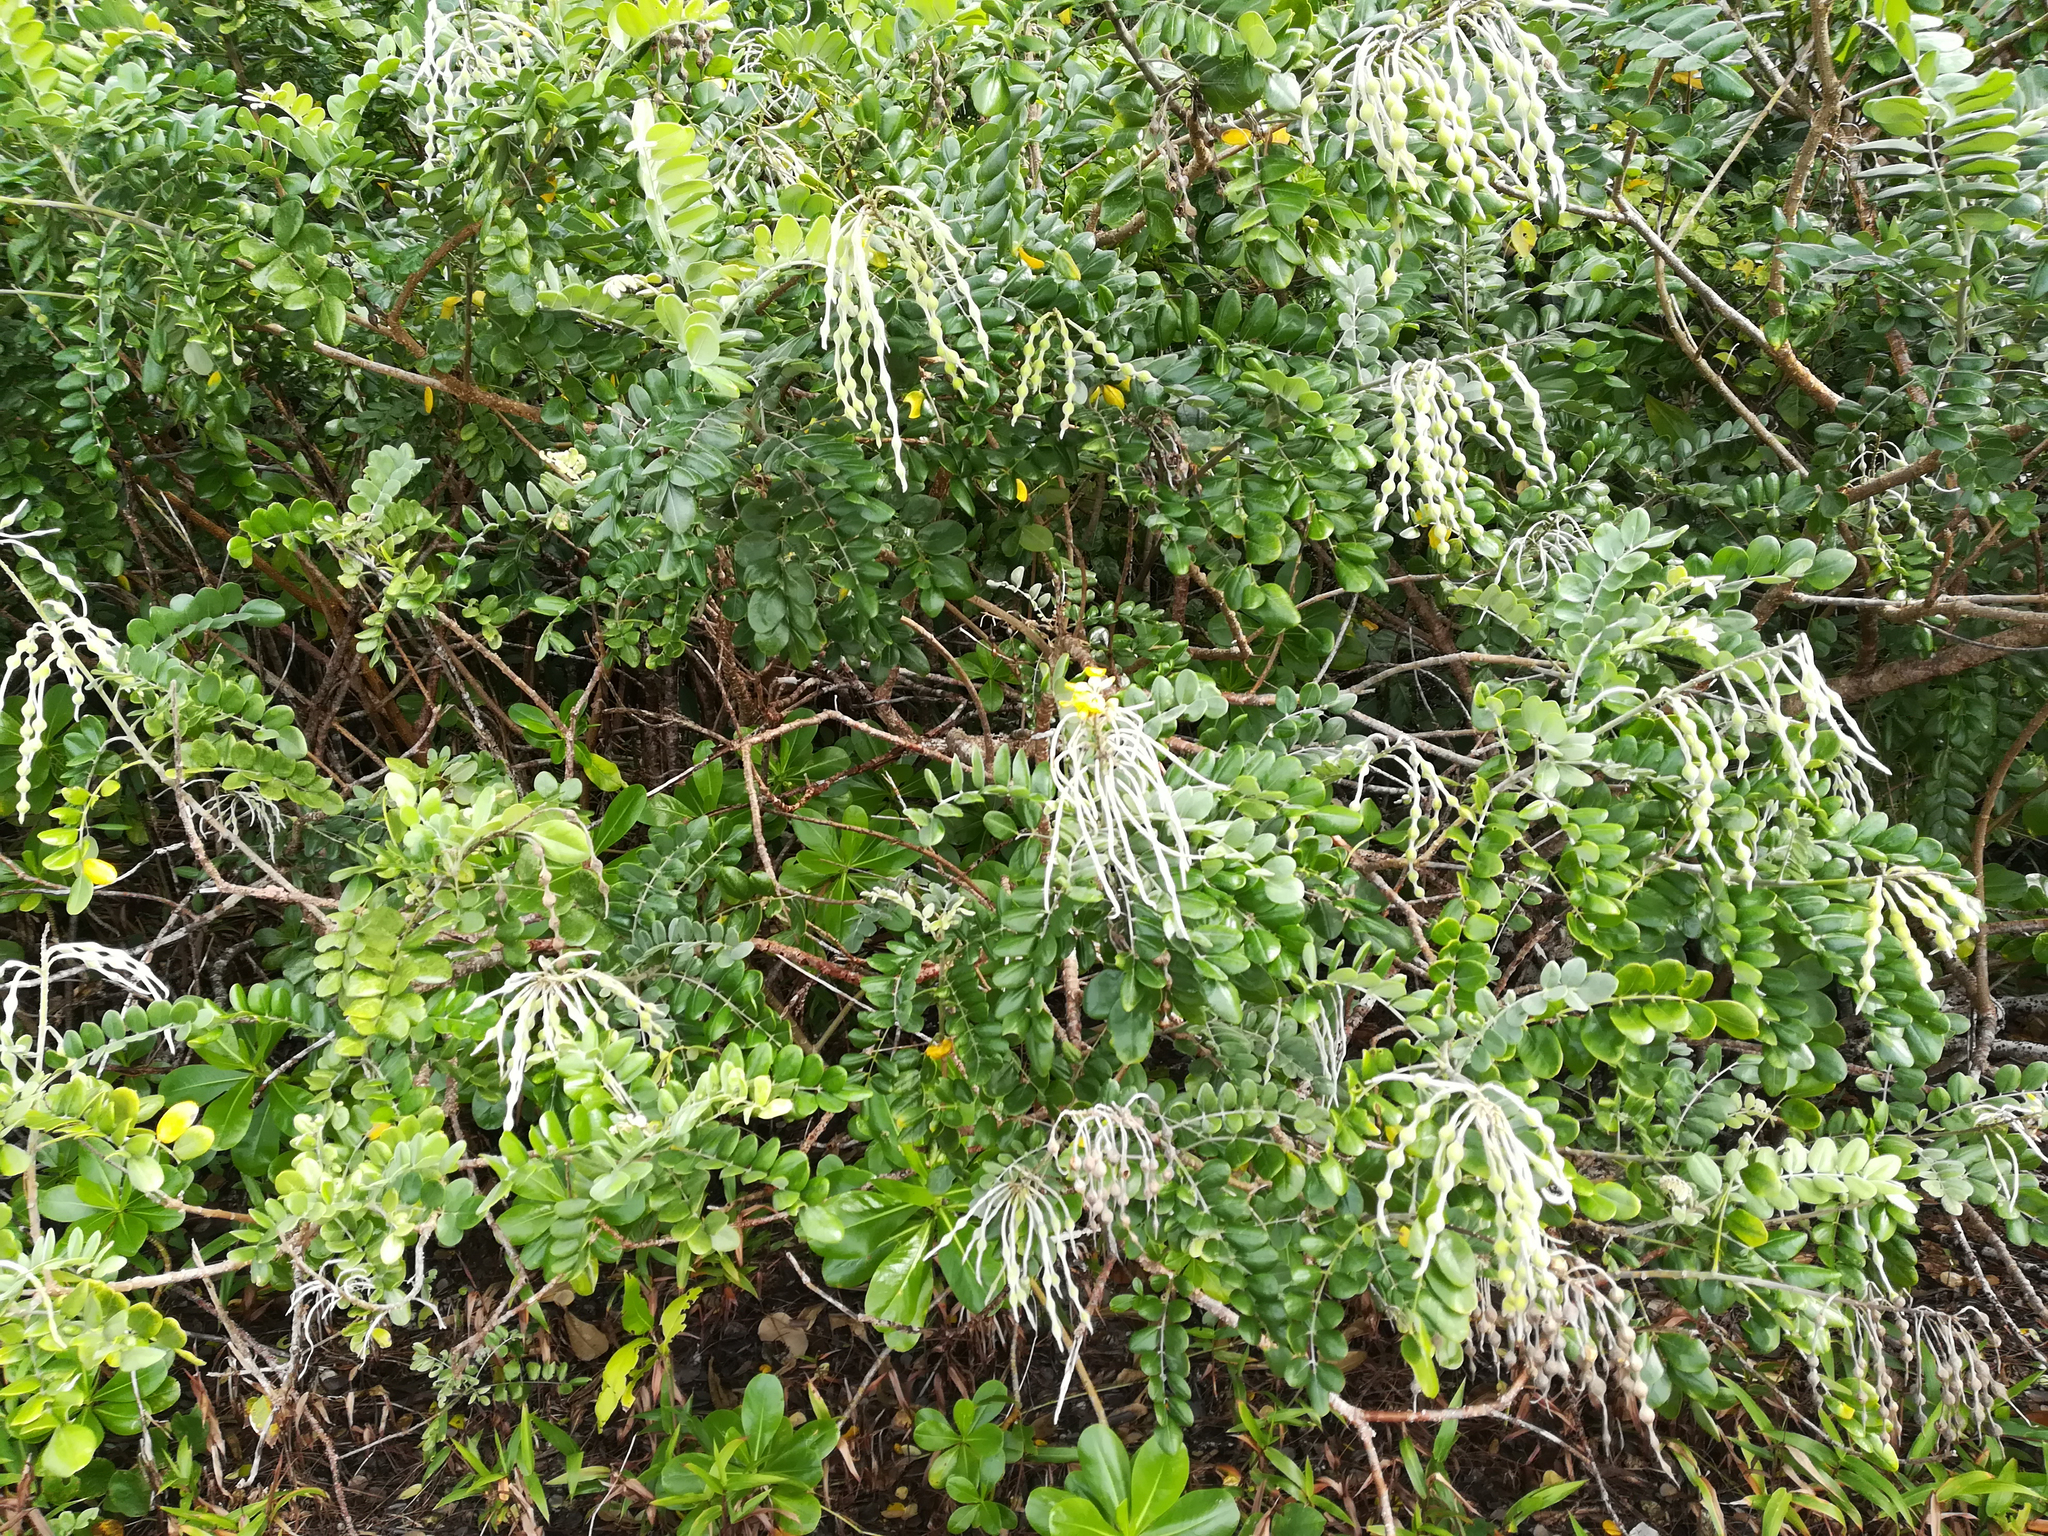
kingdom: Plantae
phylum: Tracheophyta
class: Magnoliopsida
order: Fabales
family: Fabaceae
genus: Sophora
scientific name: Sophora tomentosa
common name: Yellow necklacepod
